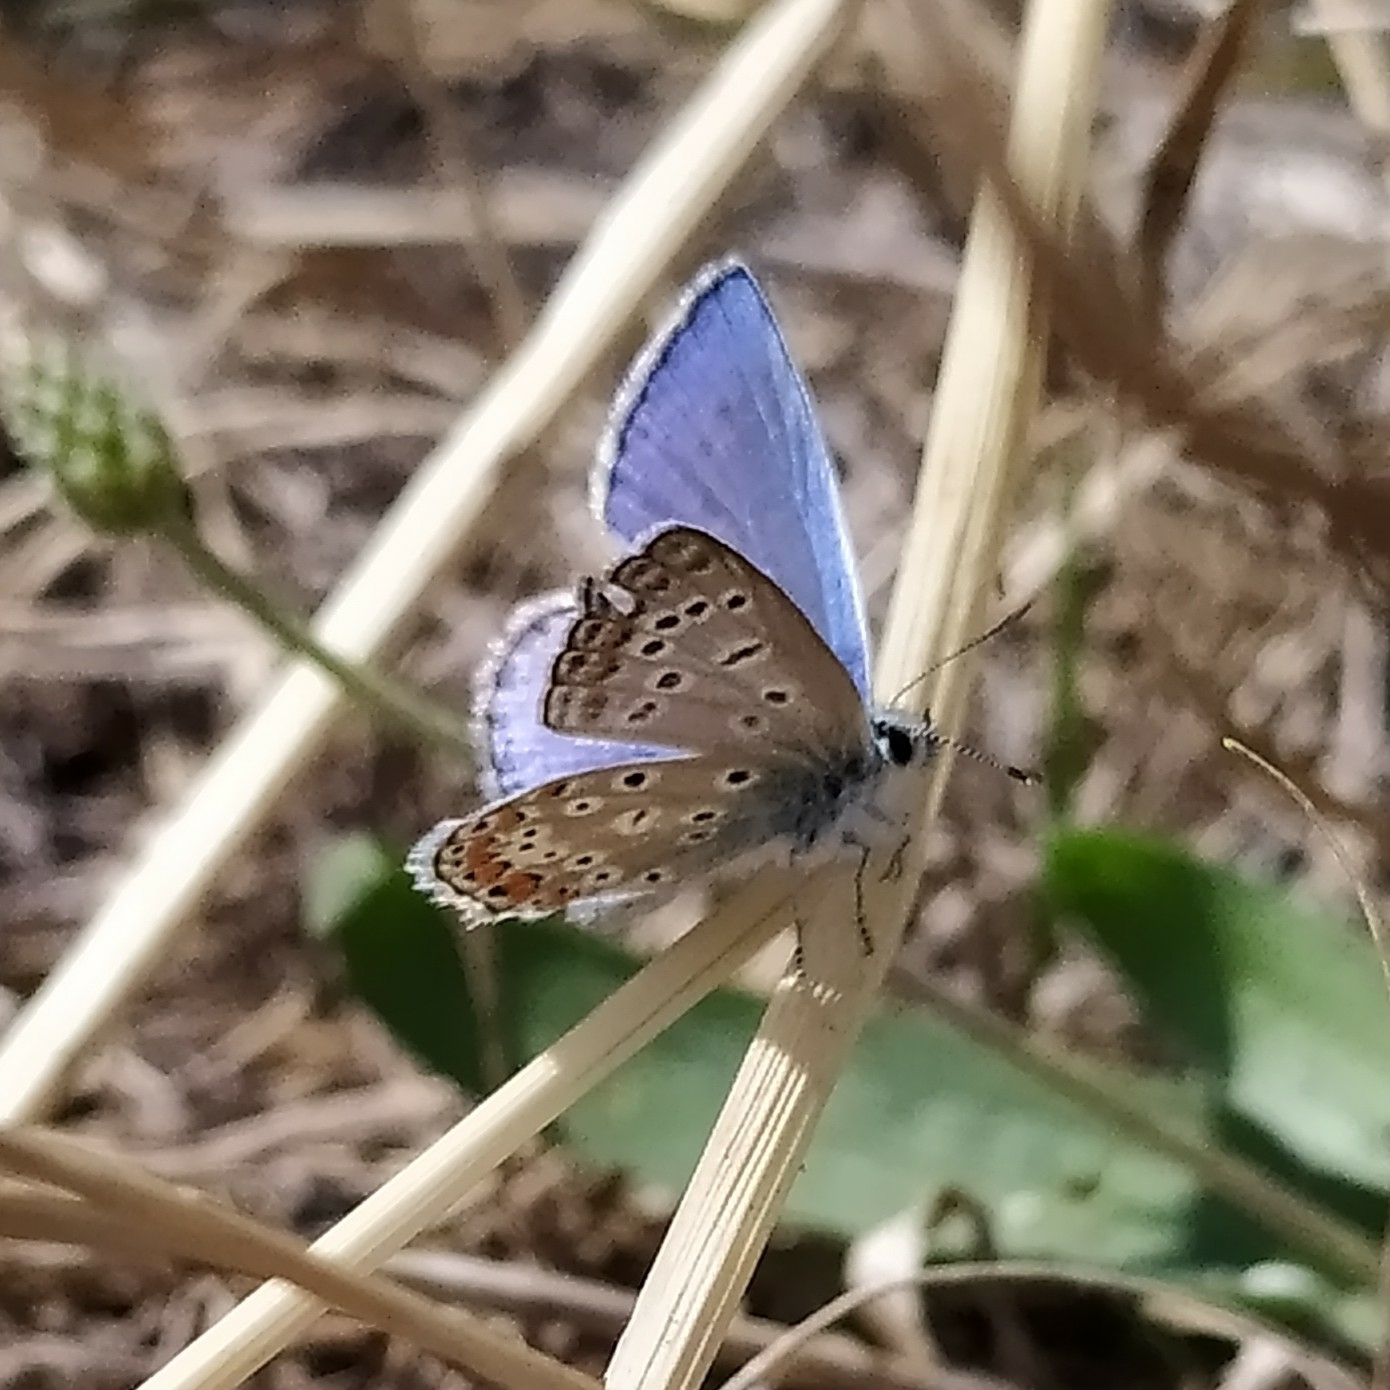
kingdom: Animalia
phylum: Arthropoda
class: Insecta
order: Lepidoptera
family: Lycaenidae
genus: Polyommatus
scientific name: Polyommatus icarus
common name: Common blue
